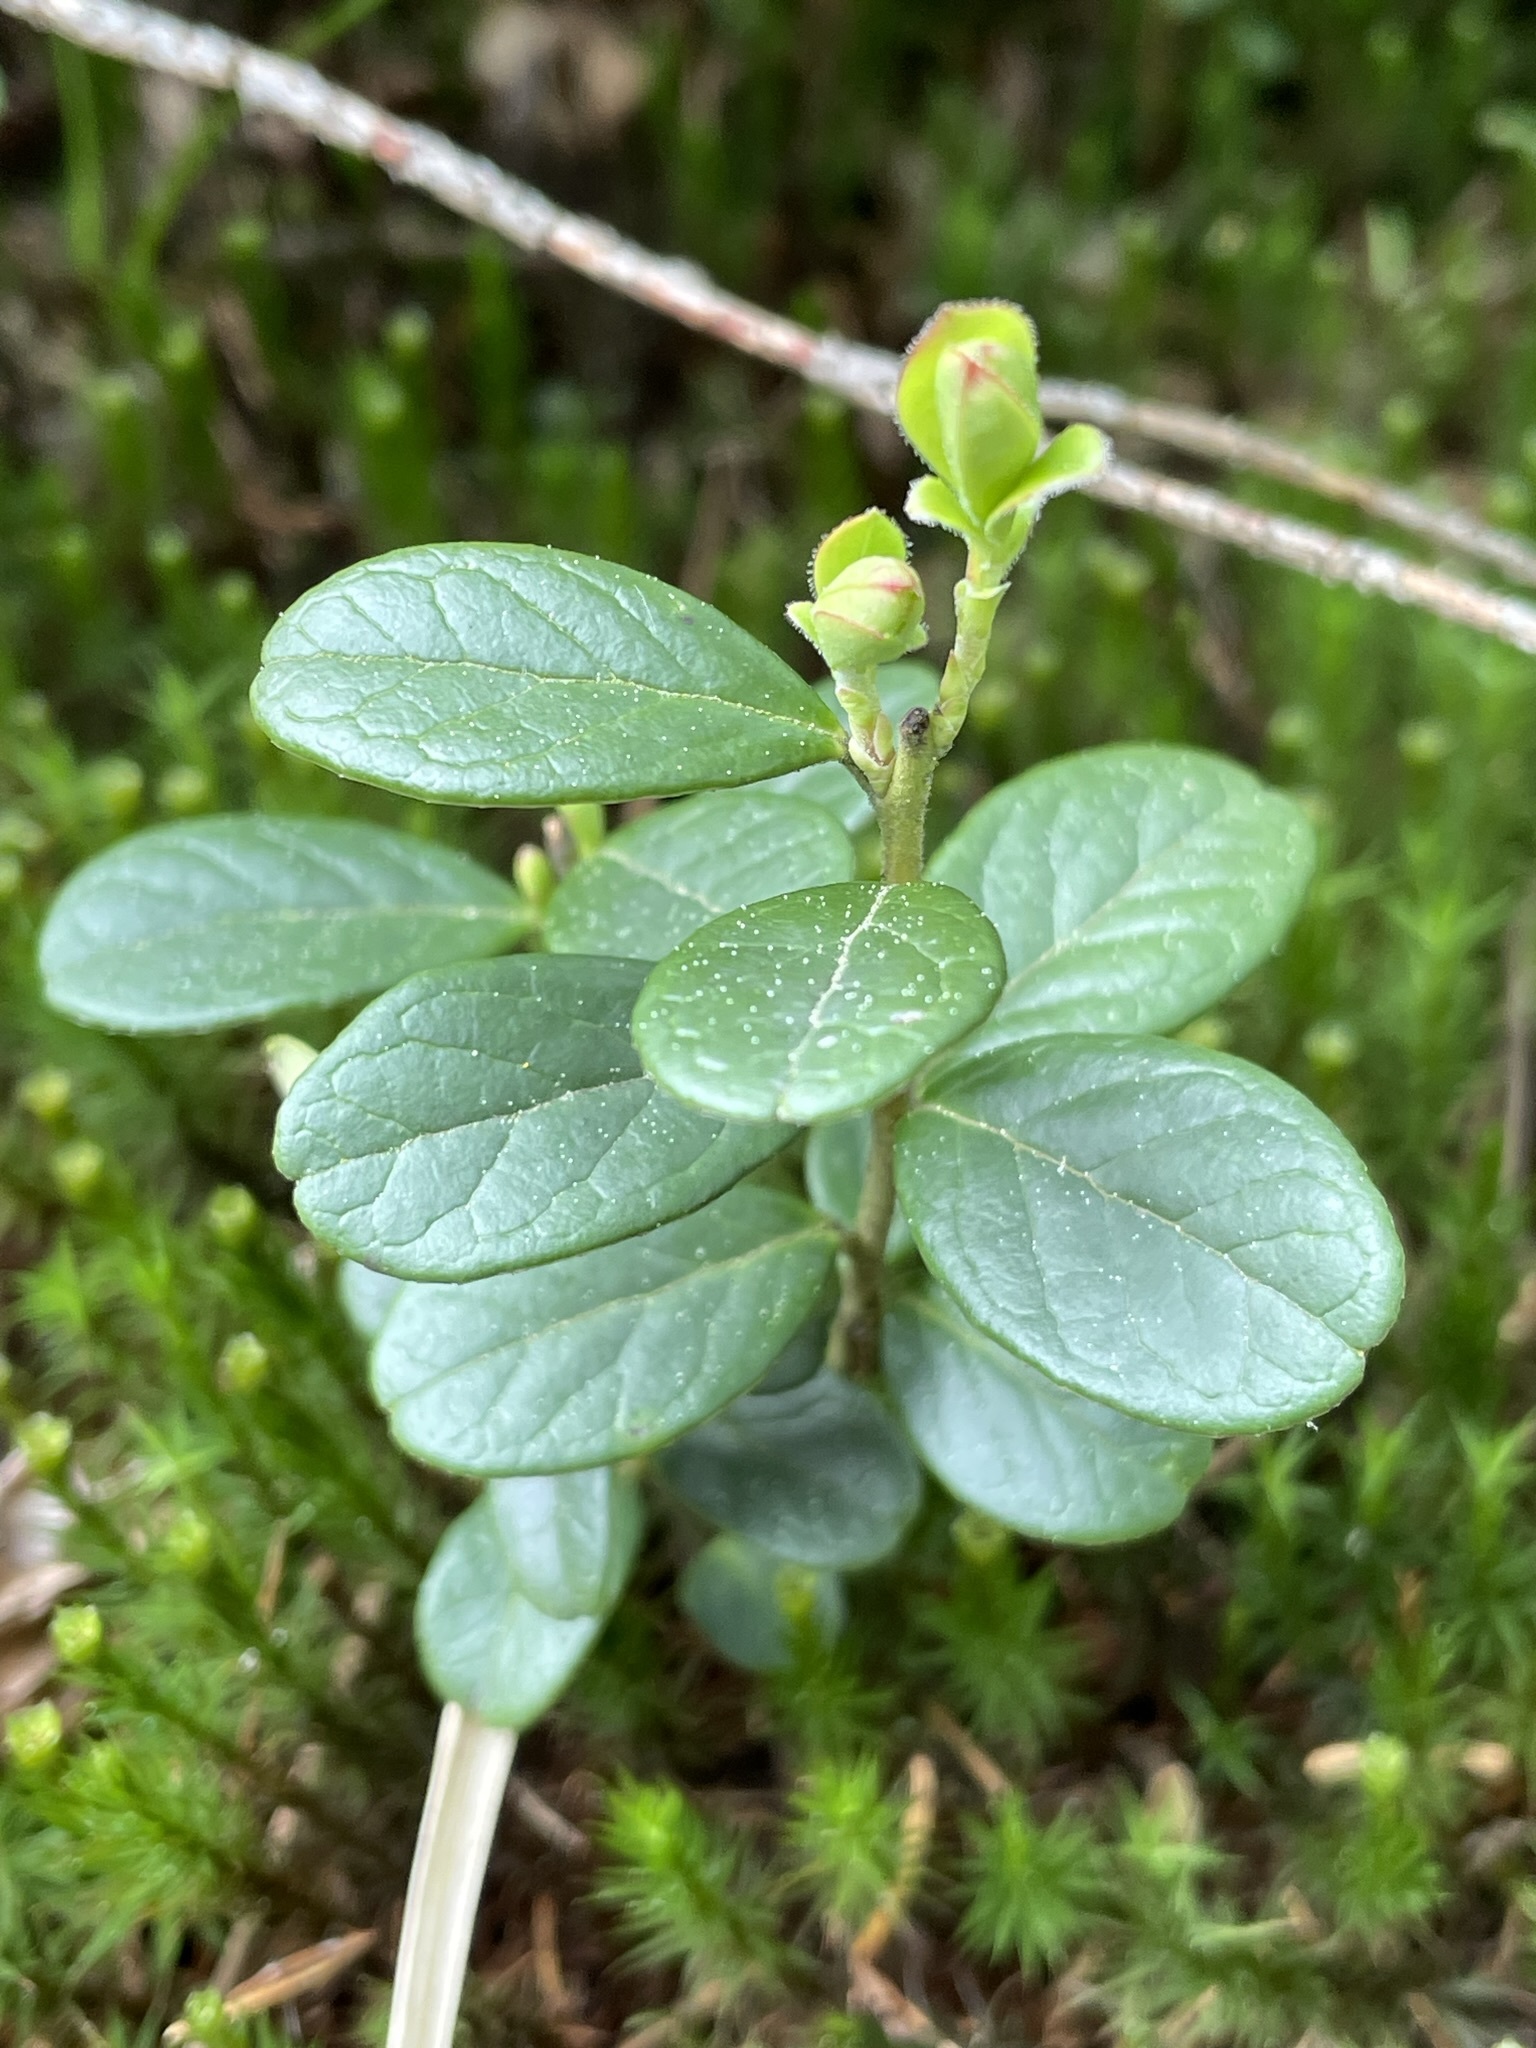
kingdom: Plantae
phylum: Tracheophyta
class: Magnoliopsida
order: Ericales
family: Ericaceae
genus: Vaccinium
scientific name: Vaccinium vitis-idaea
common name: Cowberry
